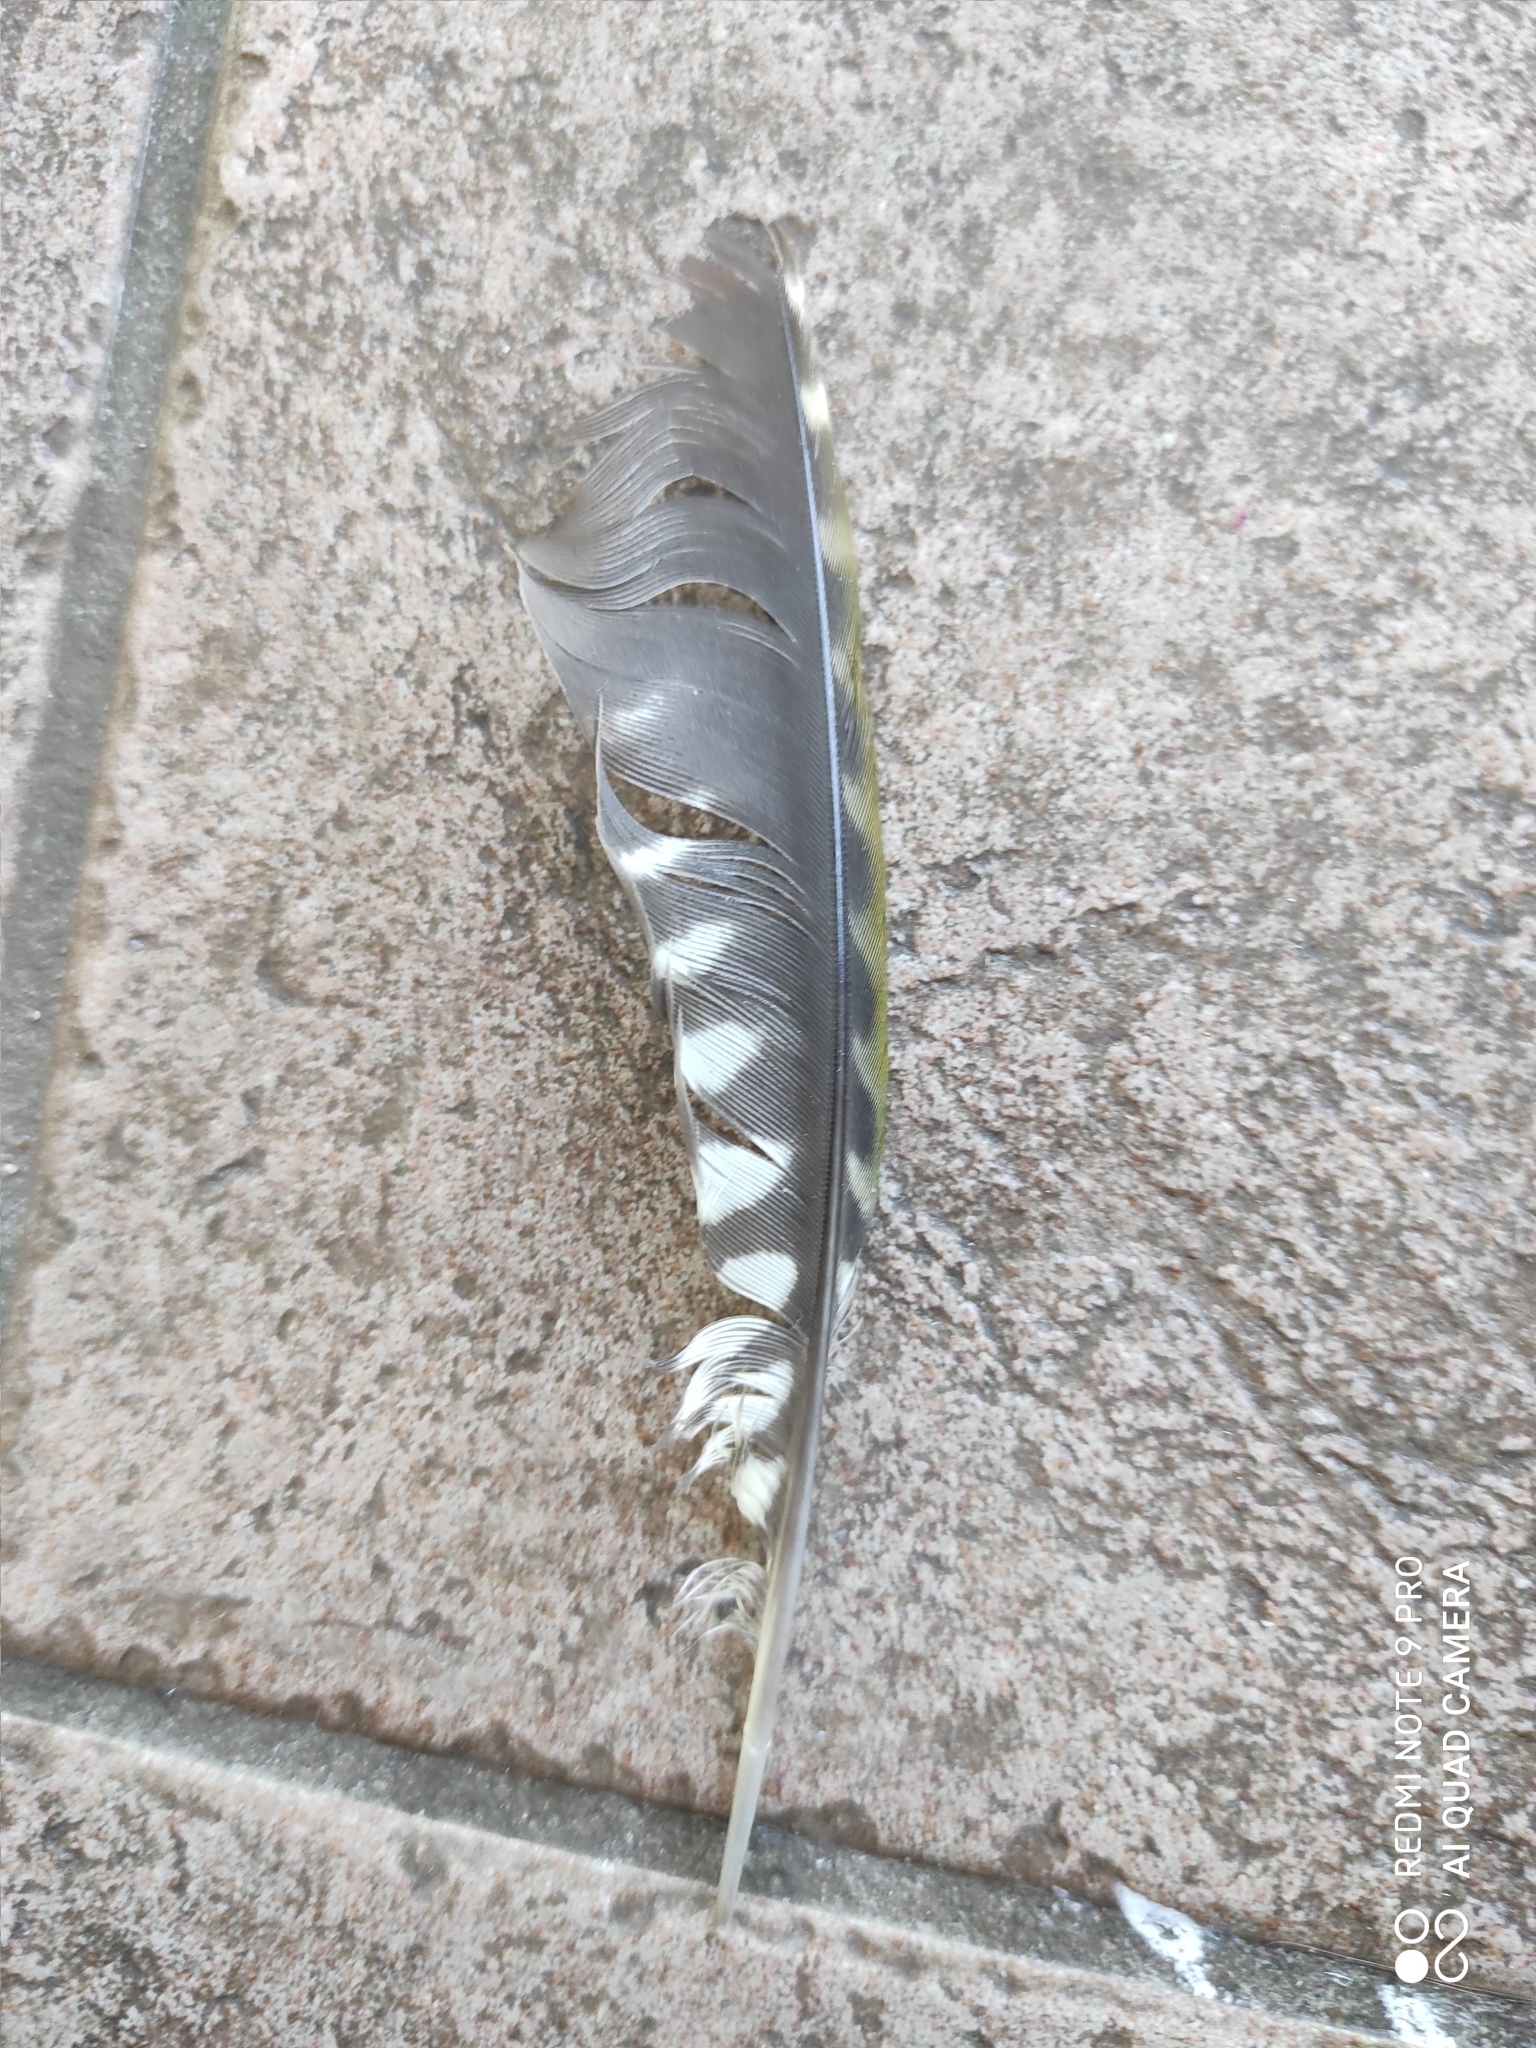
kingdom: Animalia
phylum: Chordata
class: Aves
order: Piciformes
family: Picidae
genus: Picus
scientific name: Picus viridis
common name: European green woodpecker
